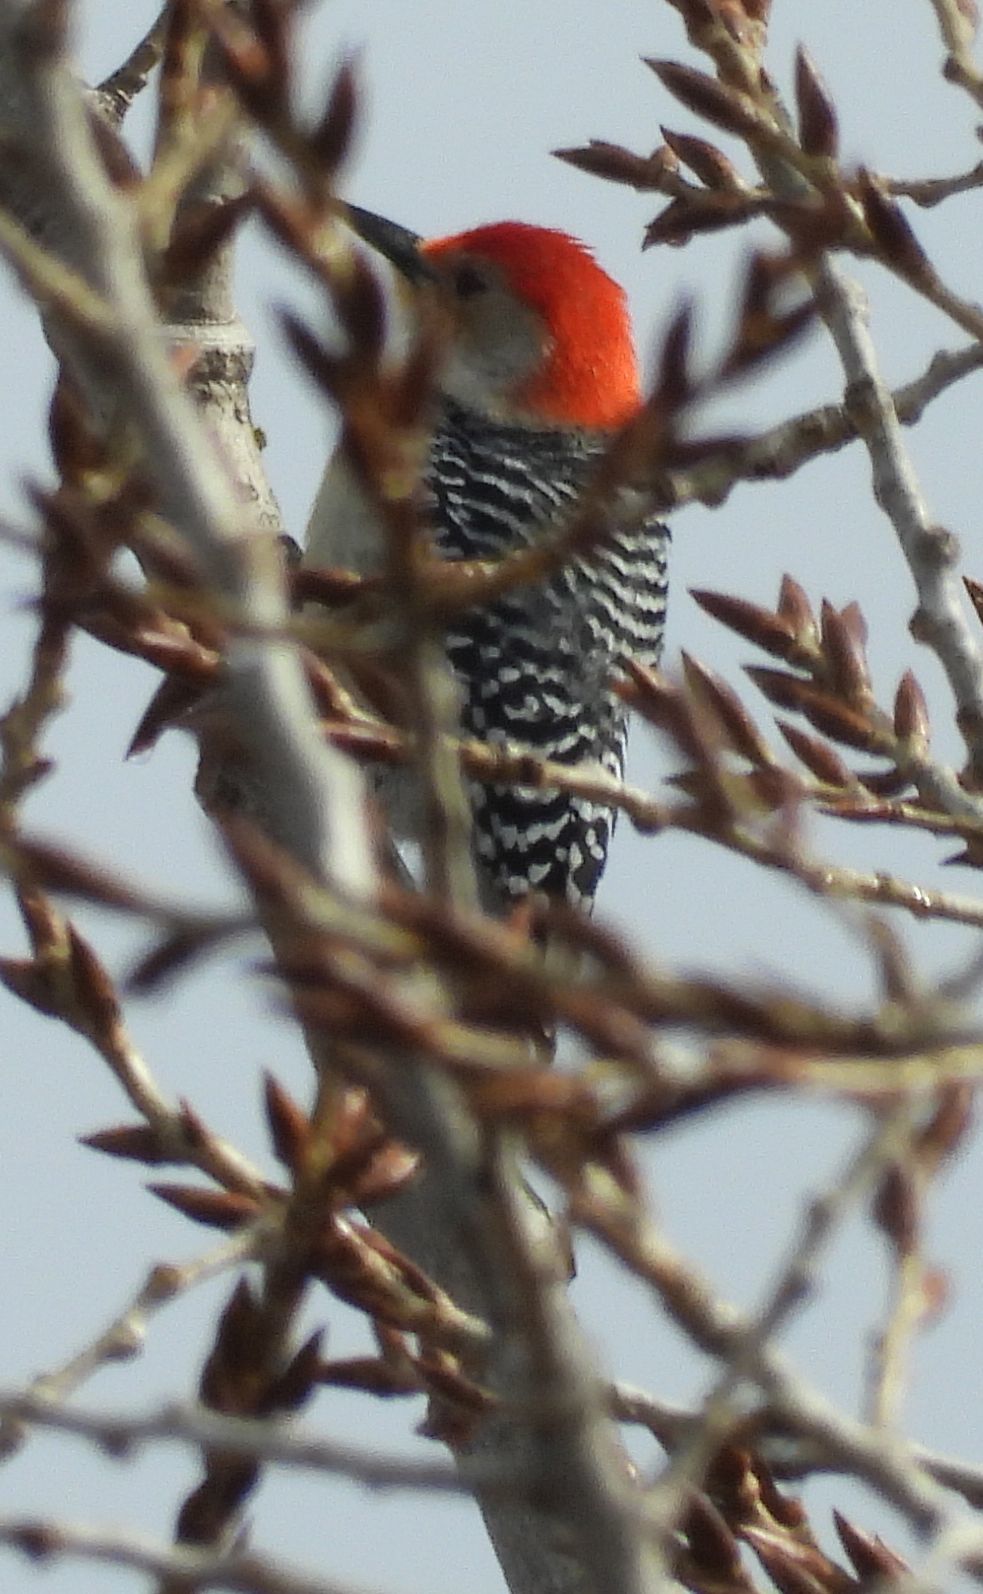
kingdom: Animalia
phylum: Chordata
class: Aves
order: Piciformes
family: Picidae
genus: Melanerpes
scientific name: Melanerpes carolinus
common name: Red-bellied woodpecker
